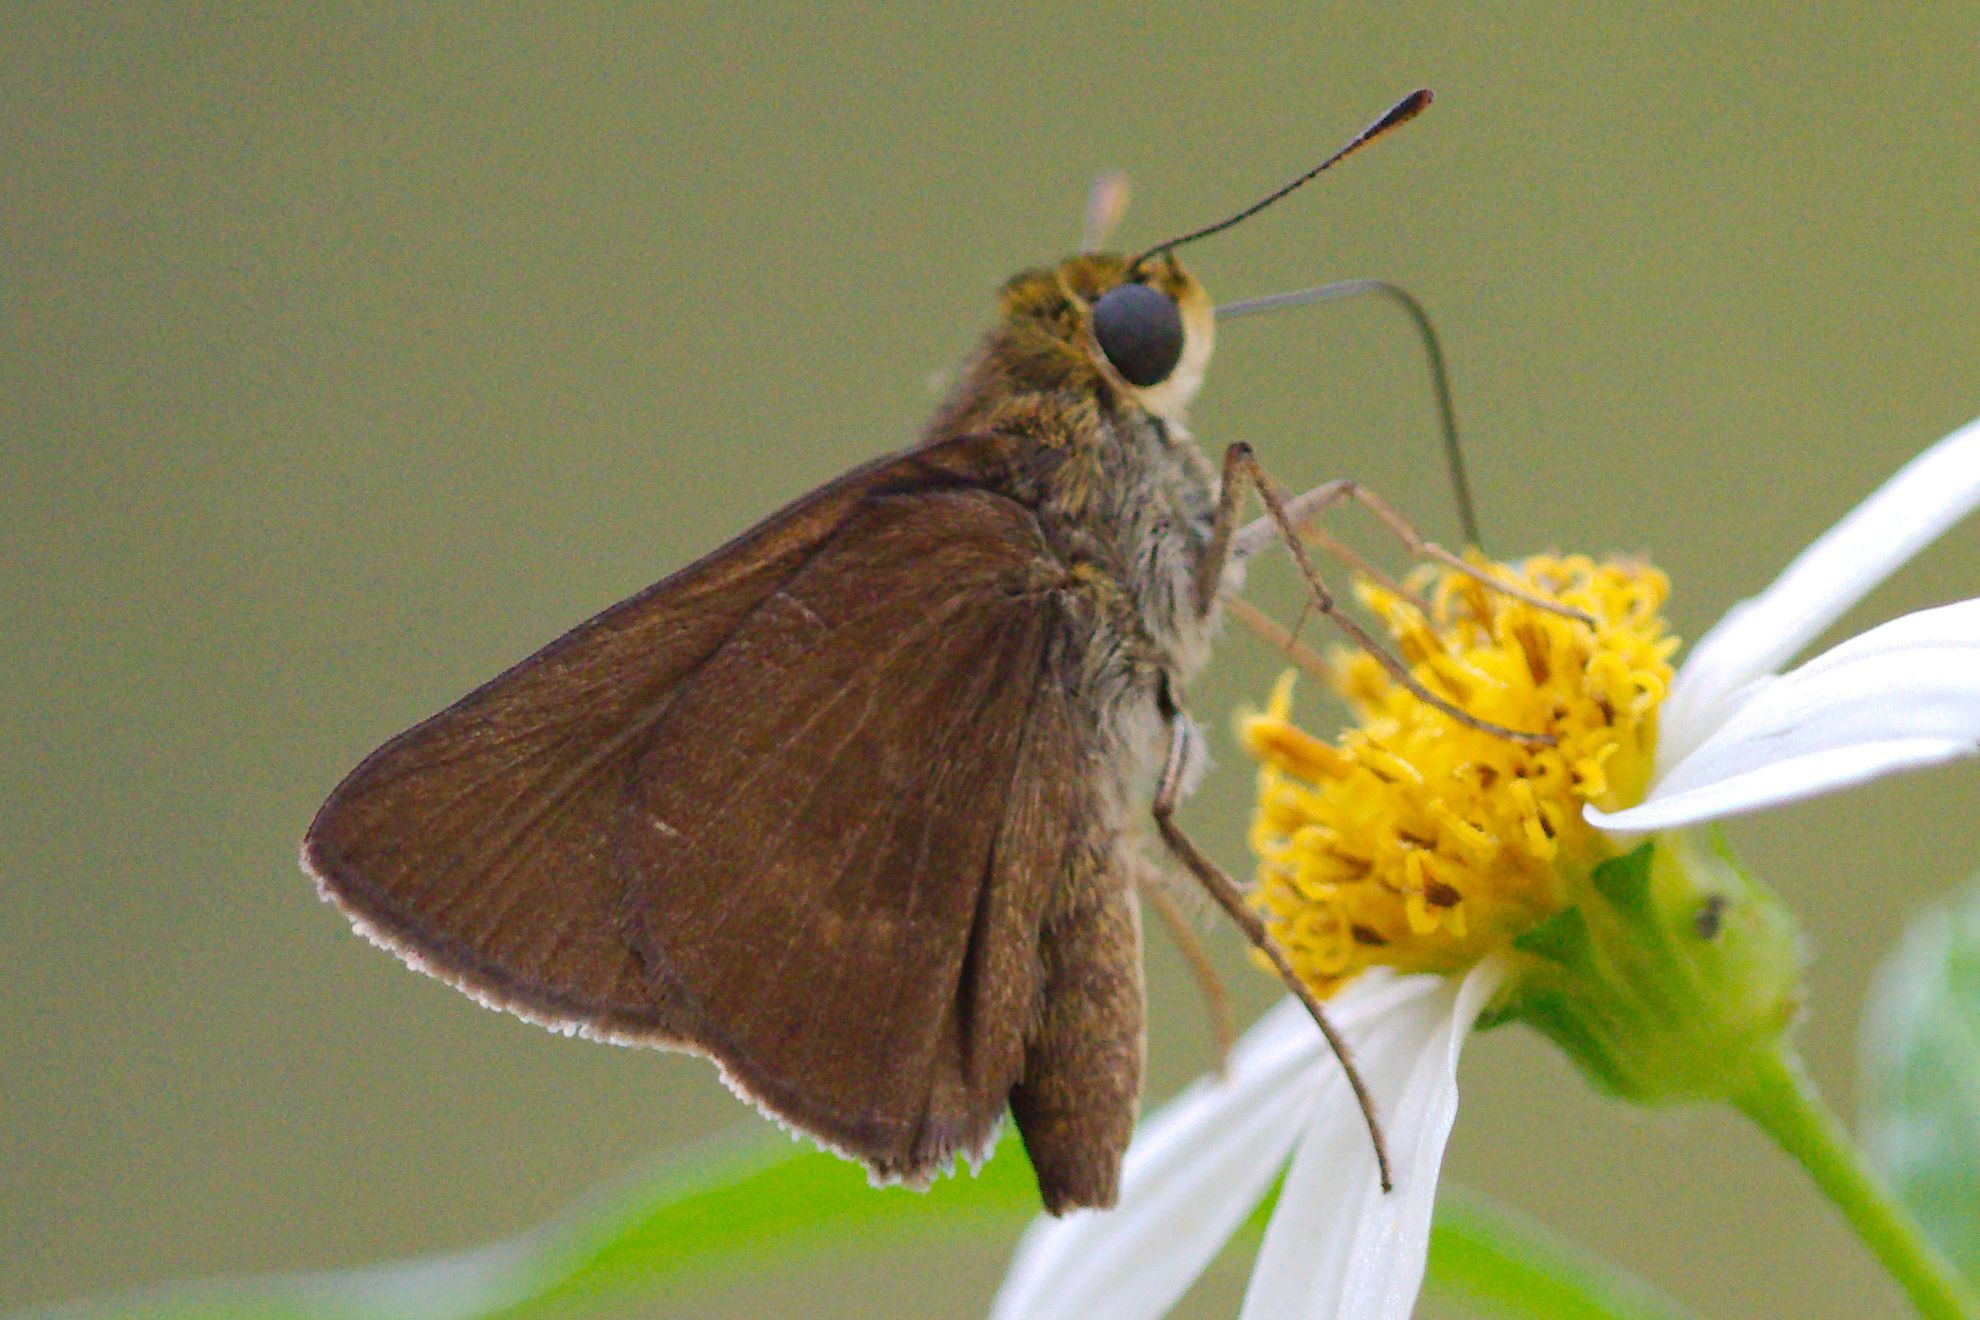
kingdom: Animalia
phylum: Arthropoda
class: Insecta
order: Lepidoptera
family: Hesperiidae
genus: Euphyes
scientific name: Euphyes vestris
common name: Dun skipper
